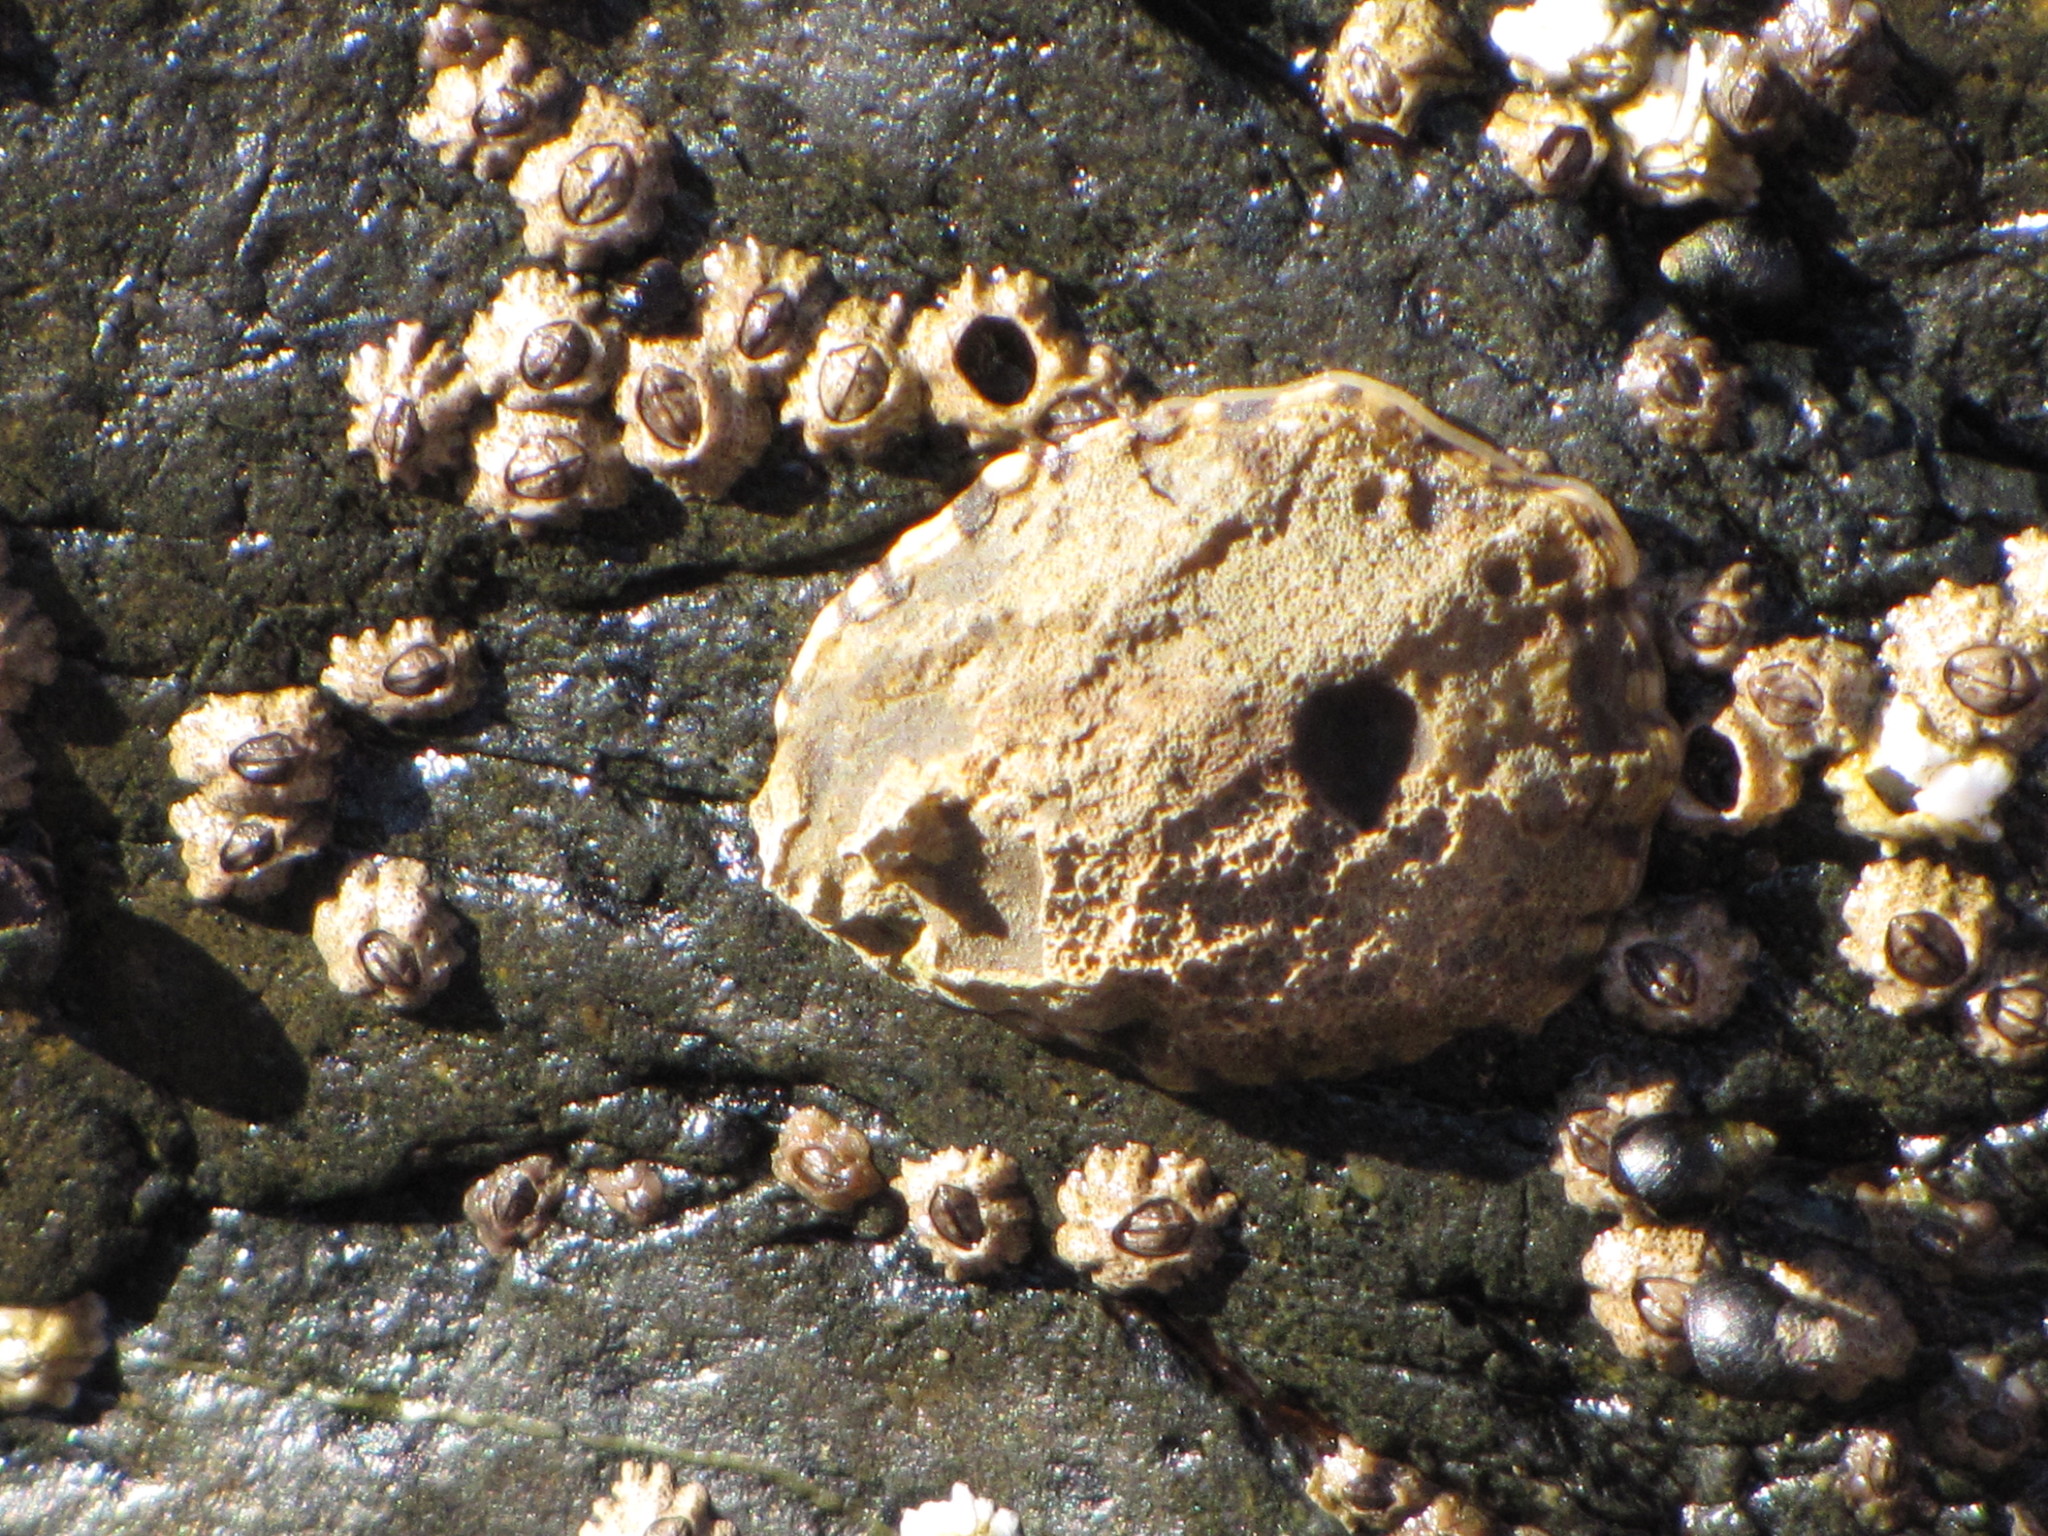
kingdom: Animalia
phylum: Arthropoda
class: Maxillopoda
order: Sessilia
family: Chthamalidae
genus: Chthamalus
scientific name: Chthamalus dalli
